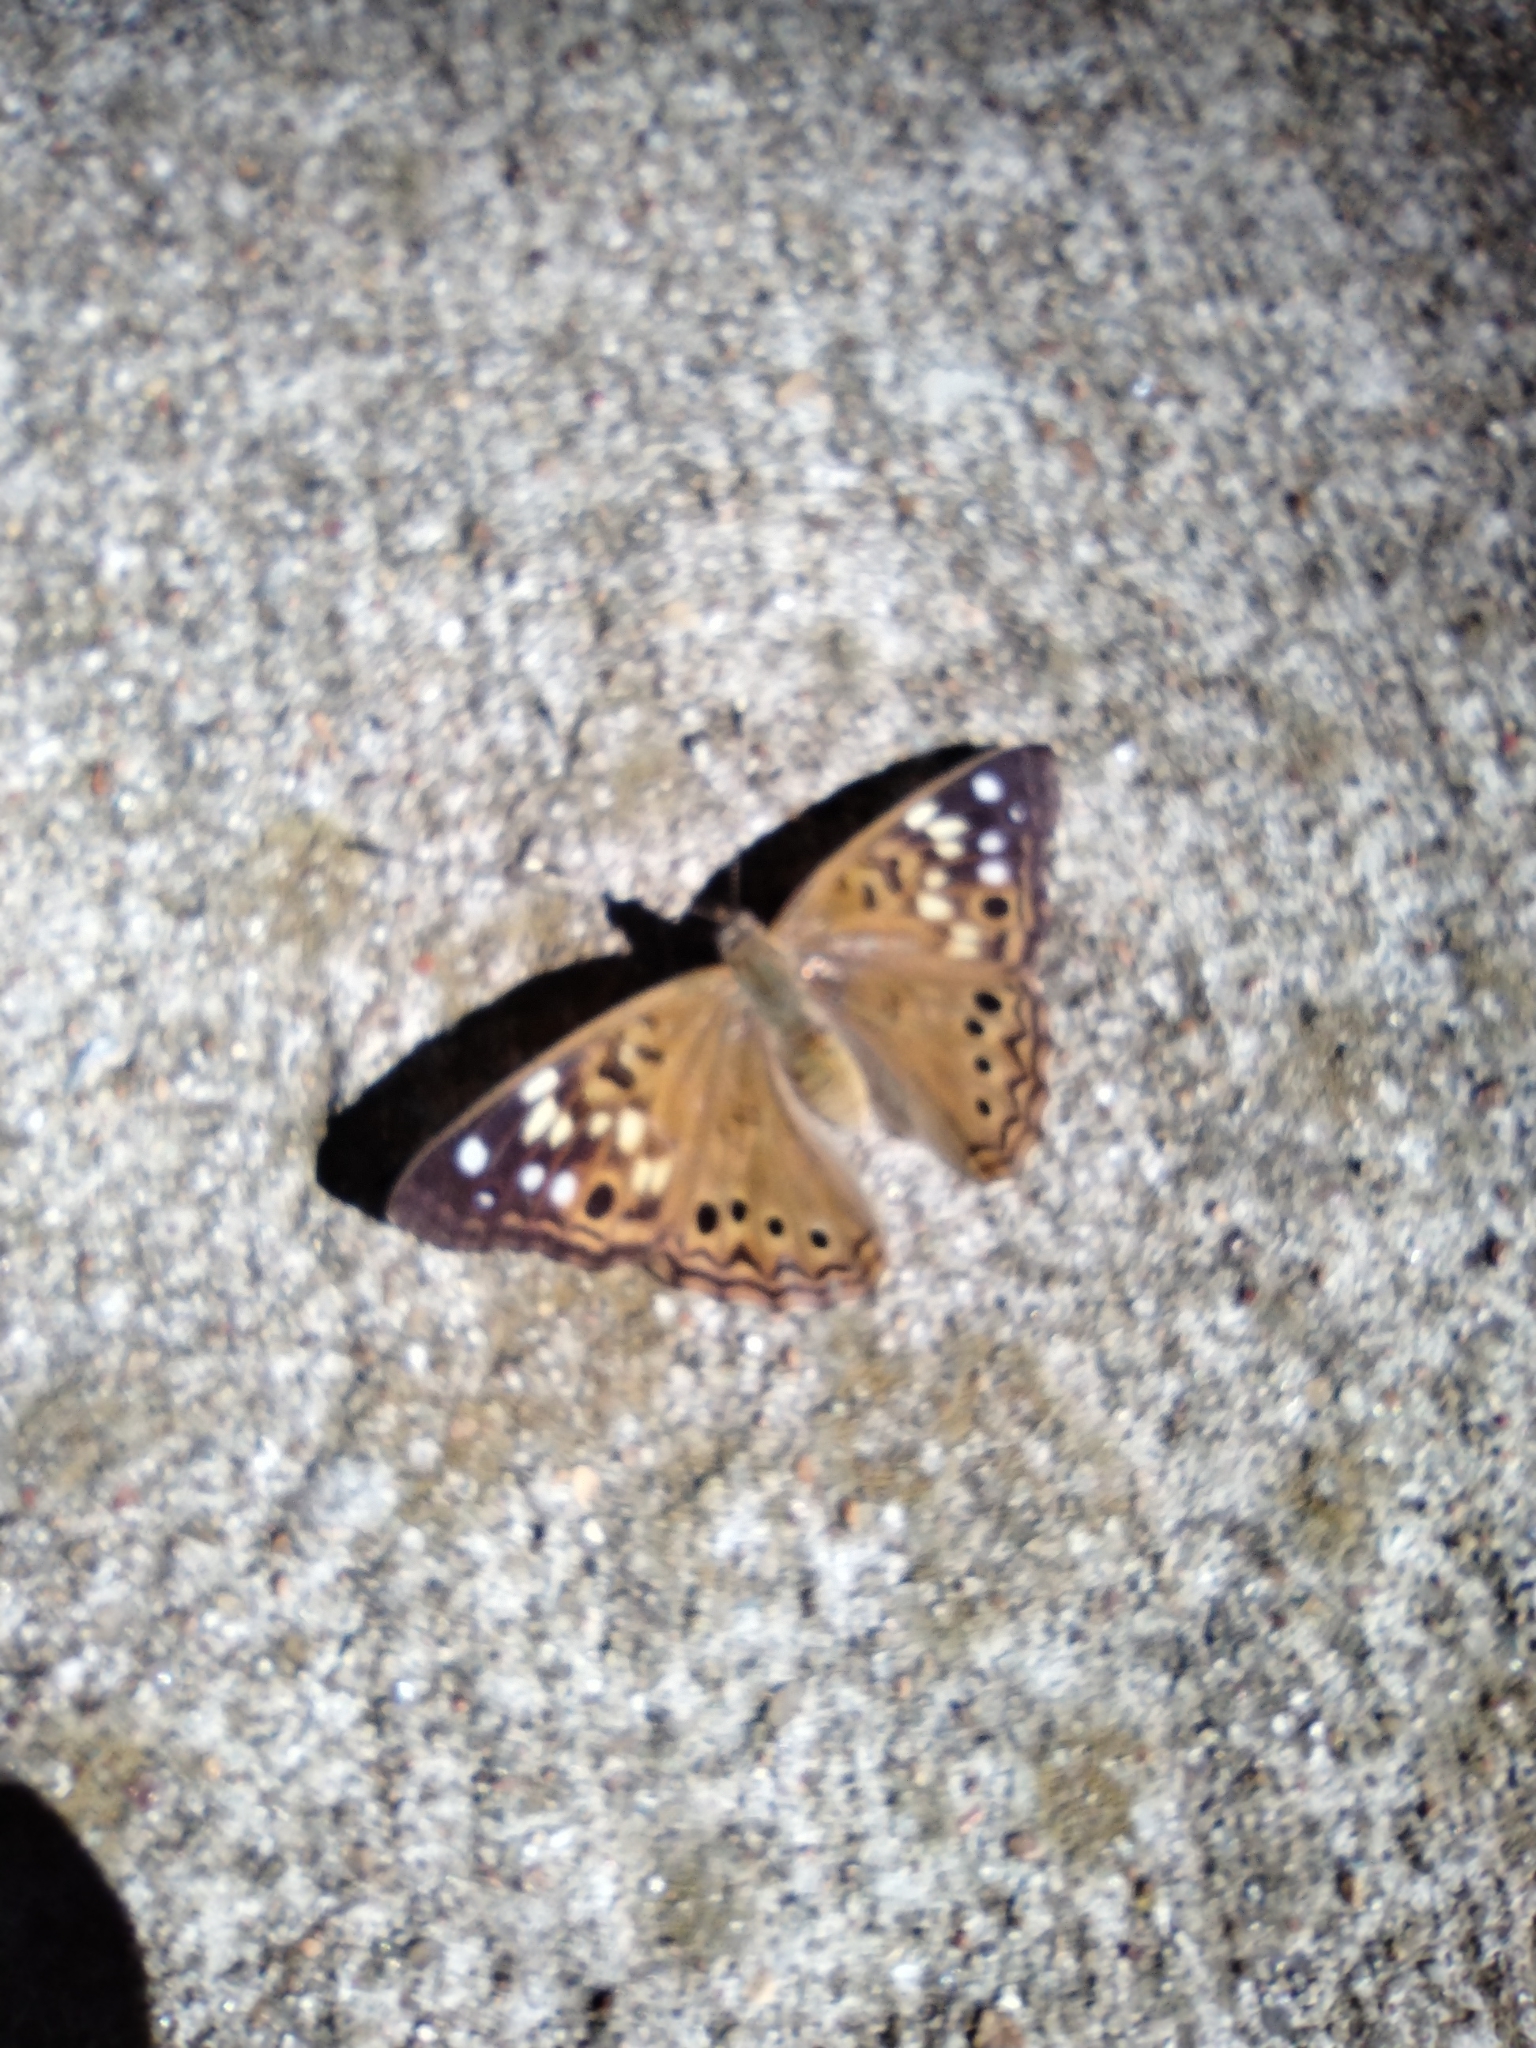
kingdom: Animalia
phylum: Arthropoda
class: Insecta
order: Lepidoptera
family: Nymphalidae
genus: Asterocampa
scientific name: Asterocampa celtis
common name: Hackberry emperor
